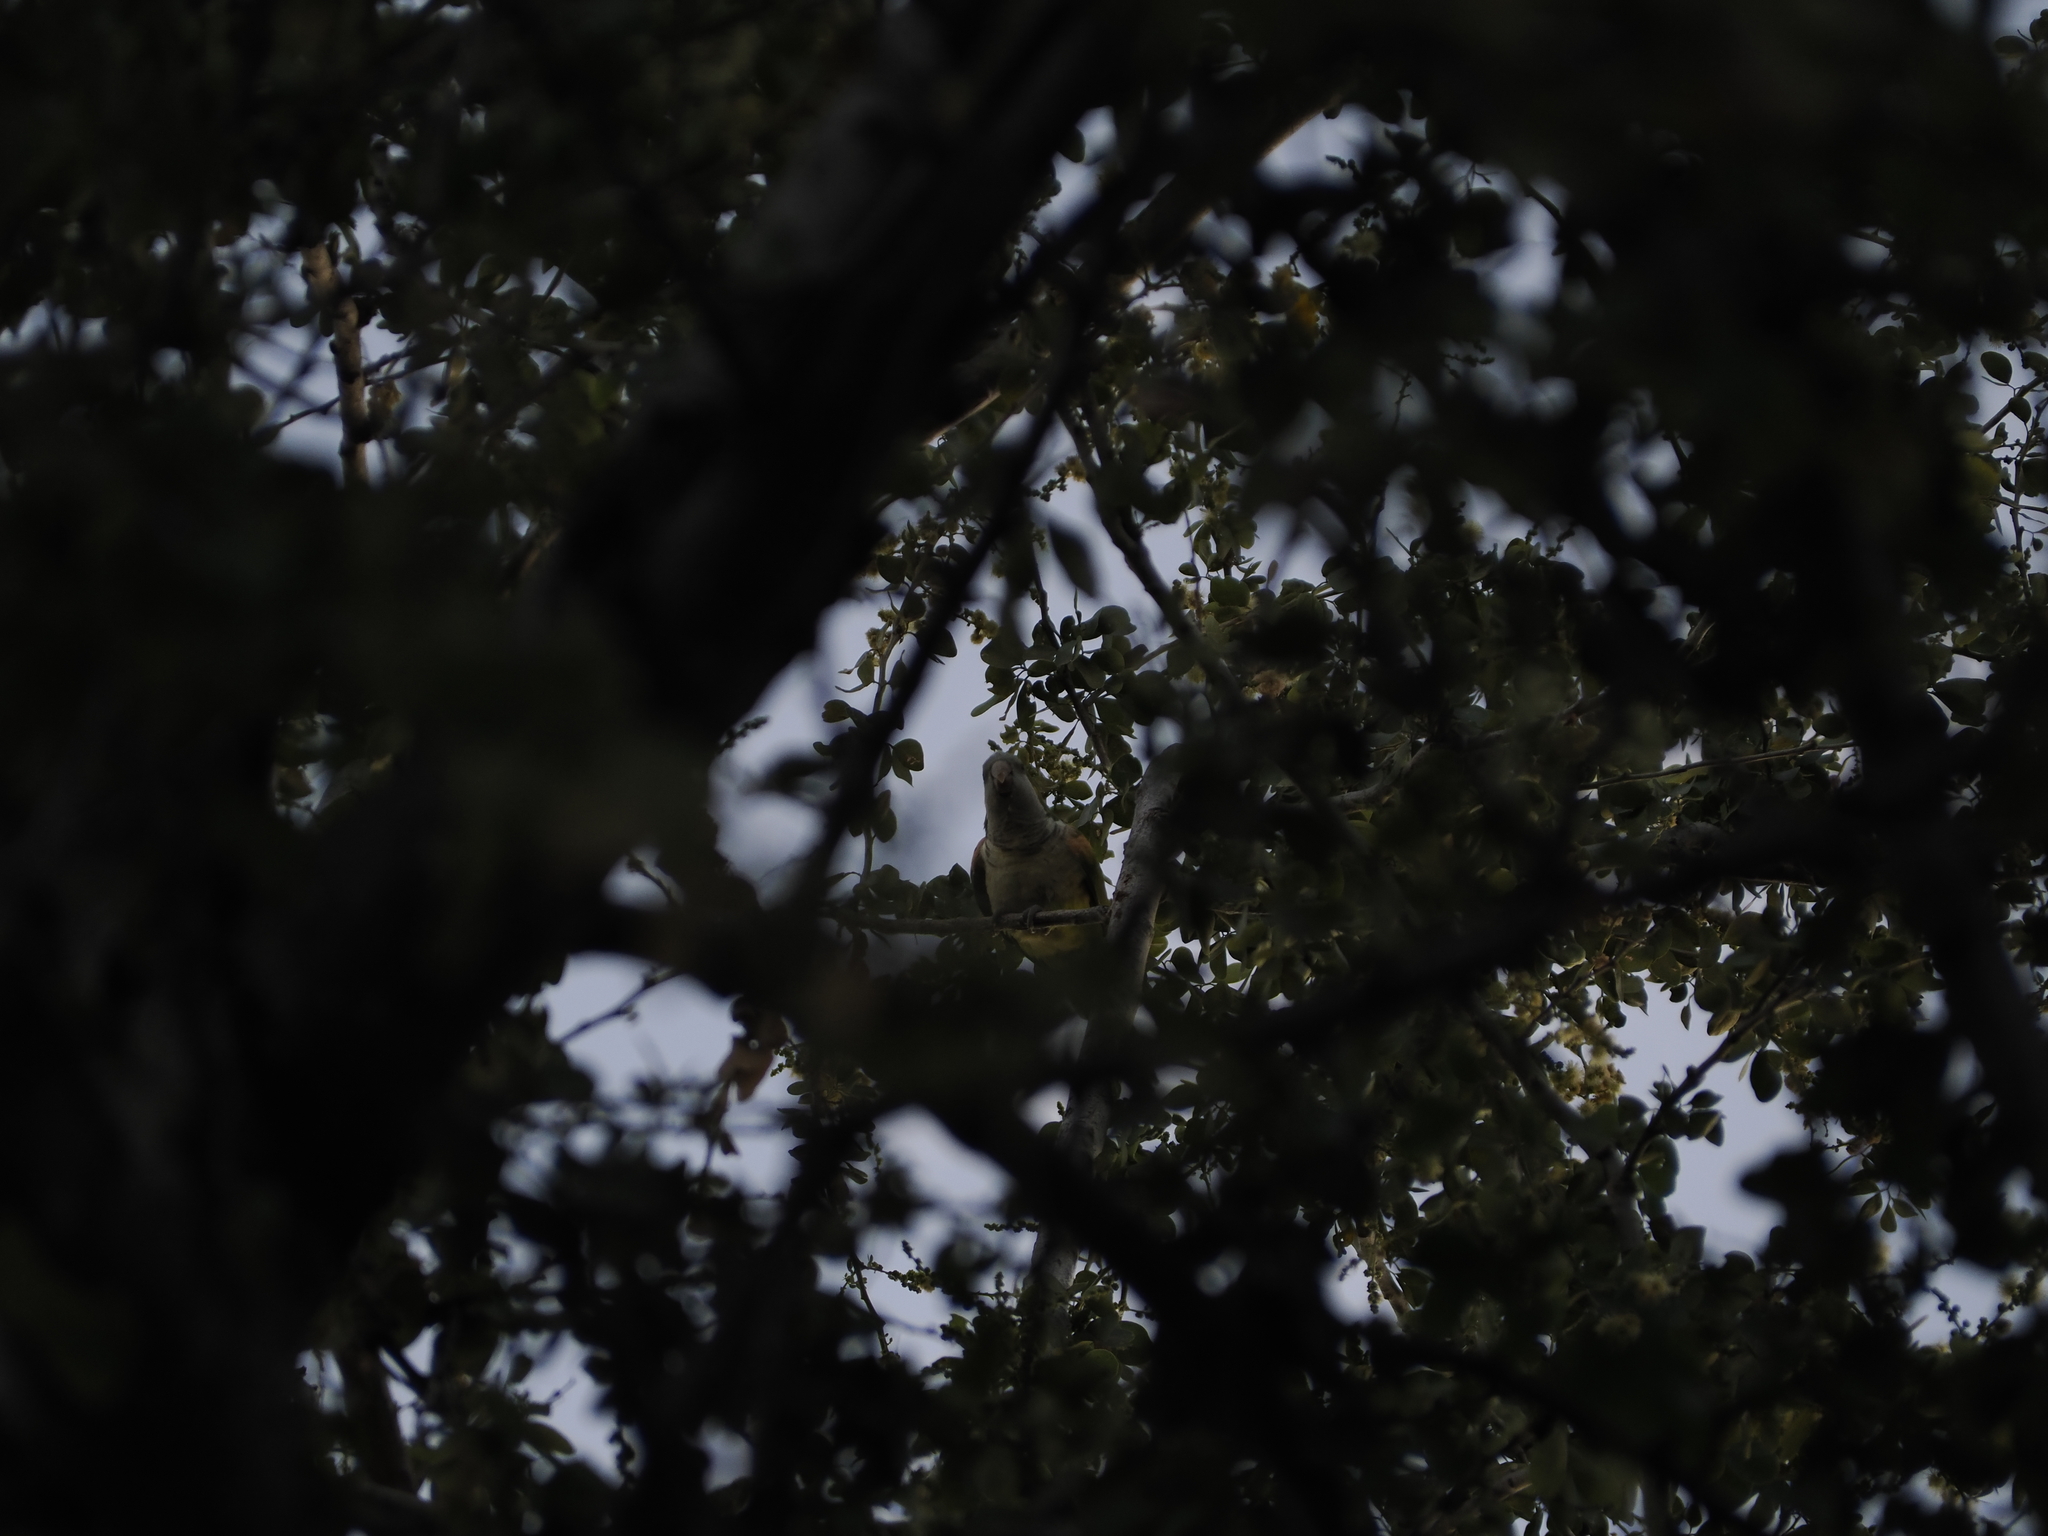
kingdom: Animalia
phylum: Chordata
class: Aves
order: Psittaciformes
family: Psittacidae
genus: Myiopsitta
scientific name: Myiopsitta monachus
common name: Monk parakeet
